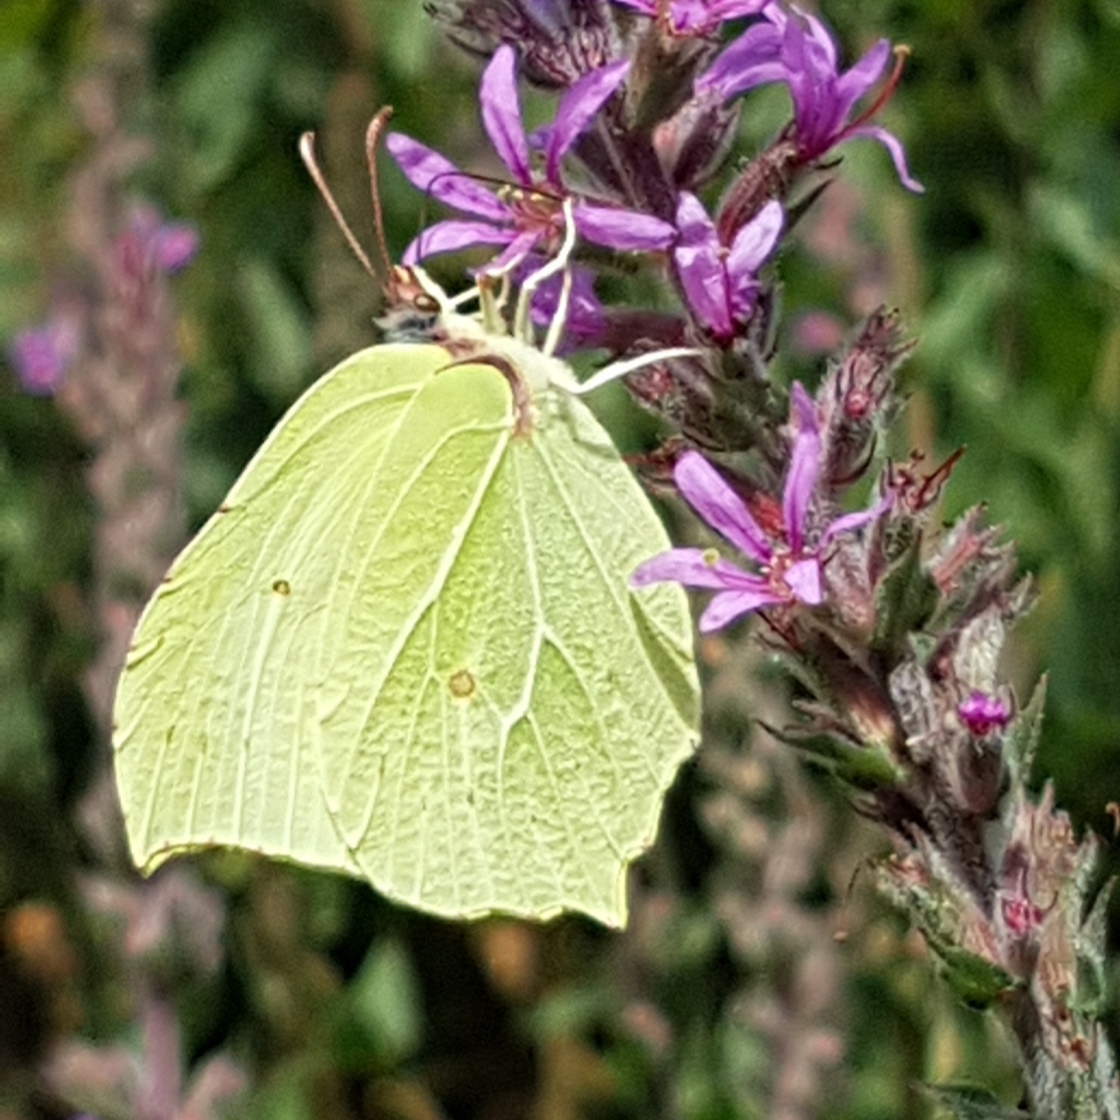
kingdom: Animalia
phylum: Arthropoda
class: Insecta
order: Lepidoptera
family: Pieridae
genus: Gonepteryx
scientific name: Gonepteryx rhamni
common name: Brimstone
